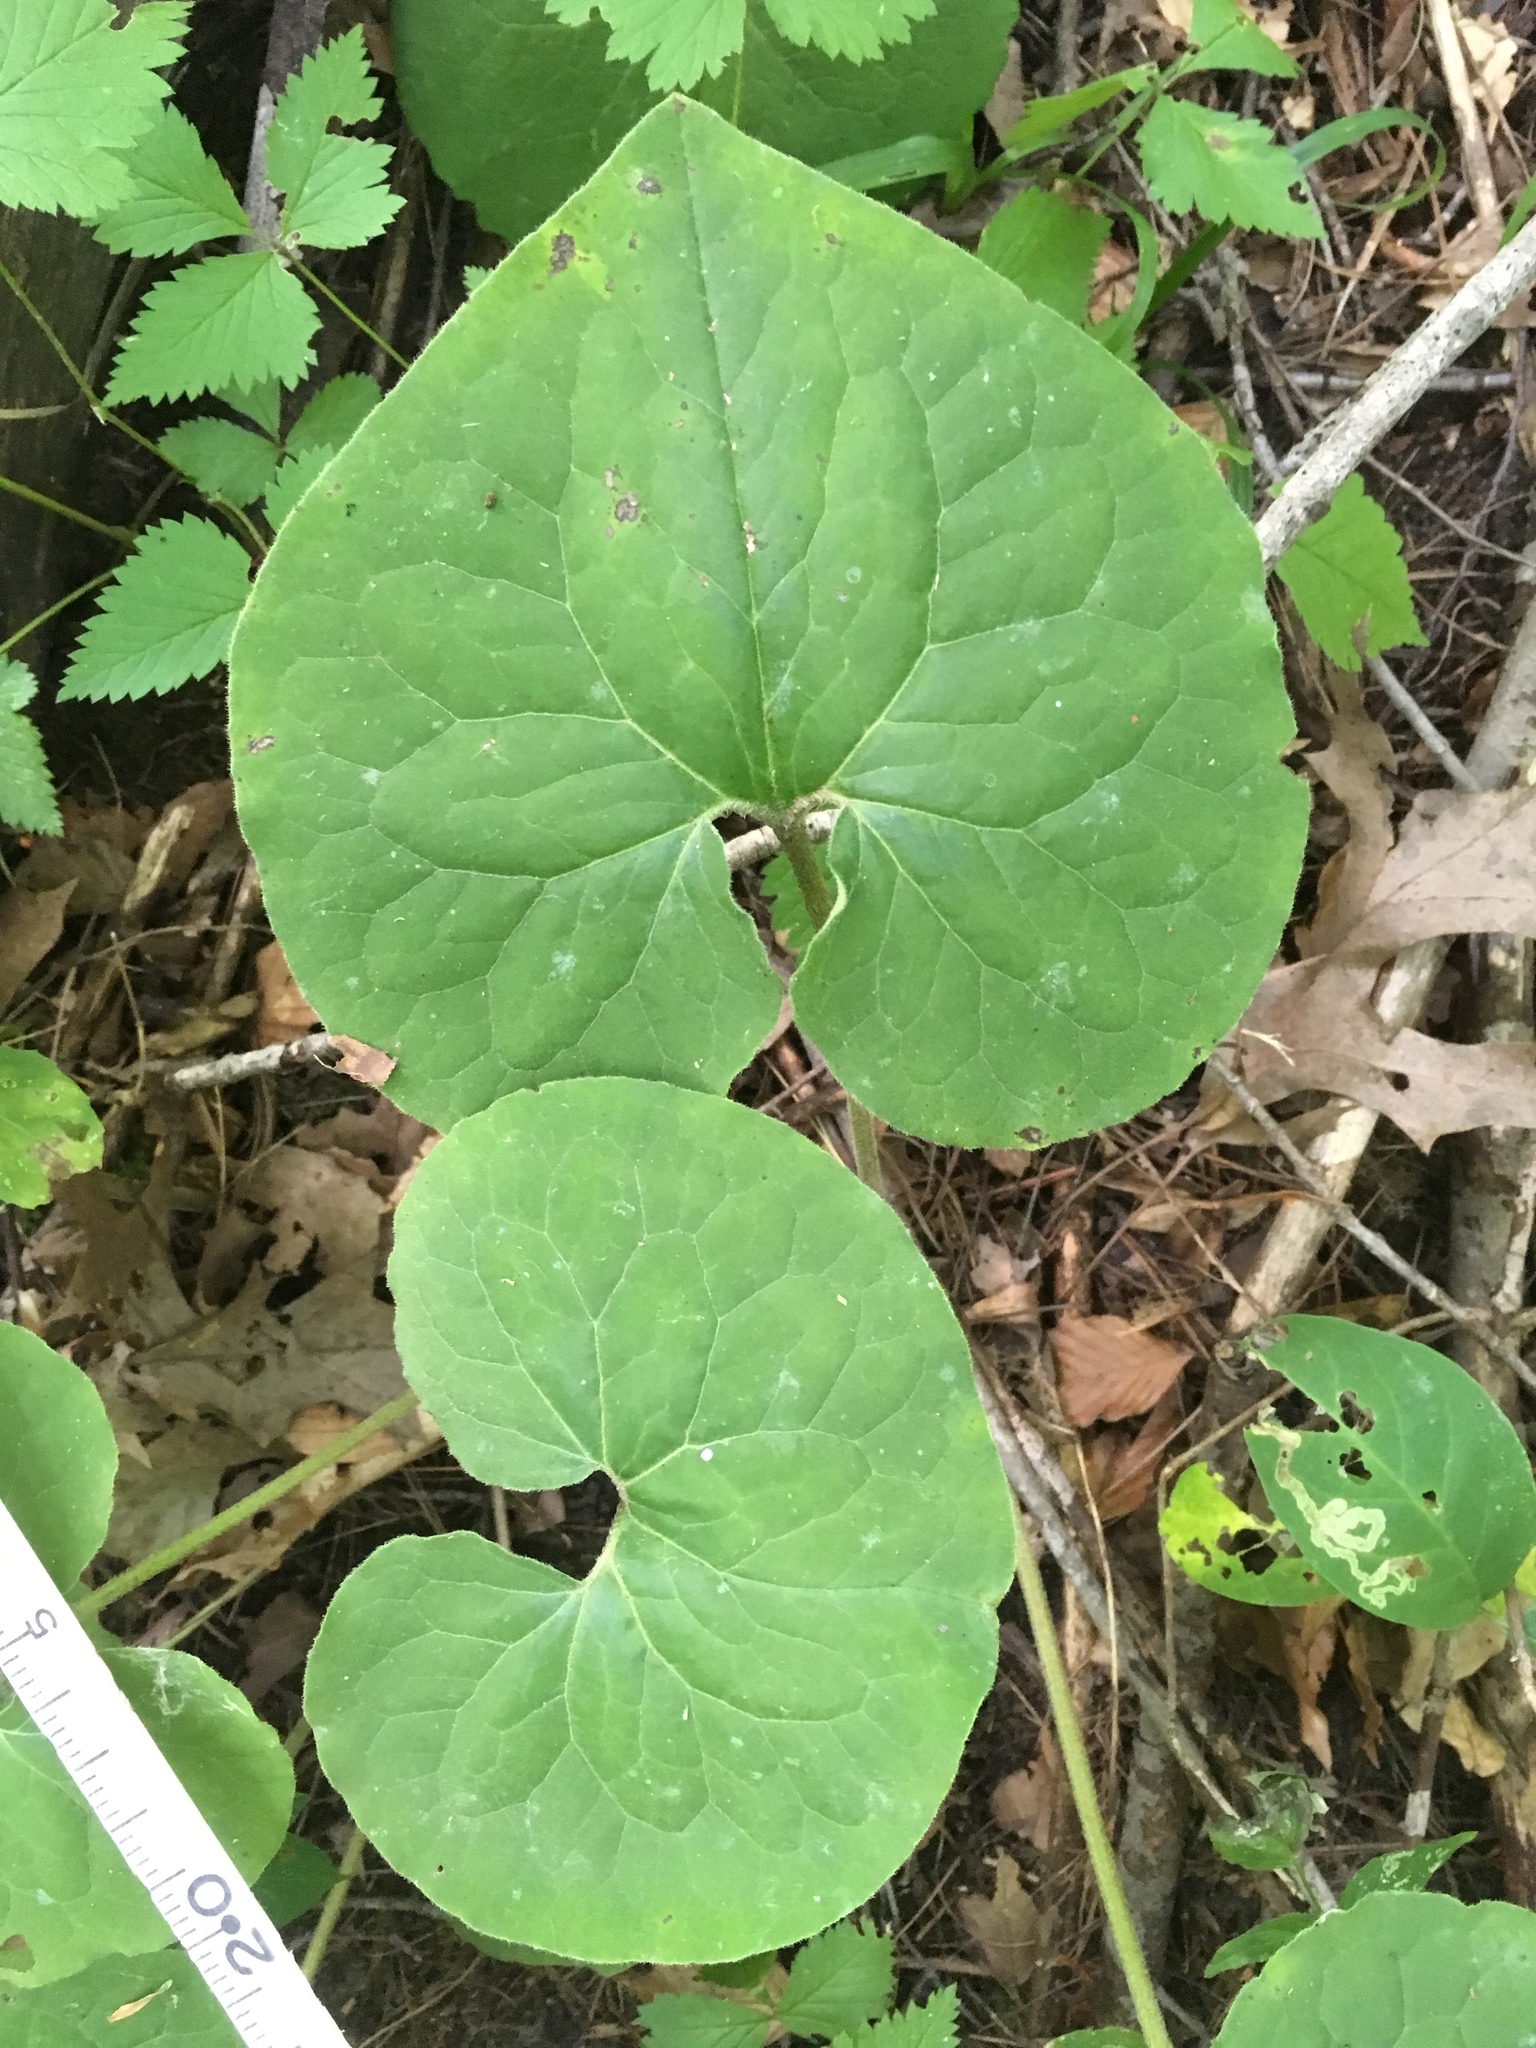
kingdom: Plantae
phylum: Tracheophyta
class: Magnoliopsida
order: Piperales
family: Aristolochiaceae
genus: Asarum
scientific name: Asarum canadense
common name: Wild ginger
